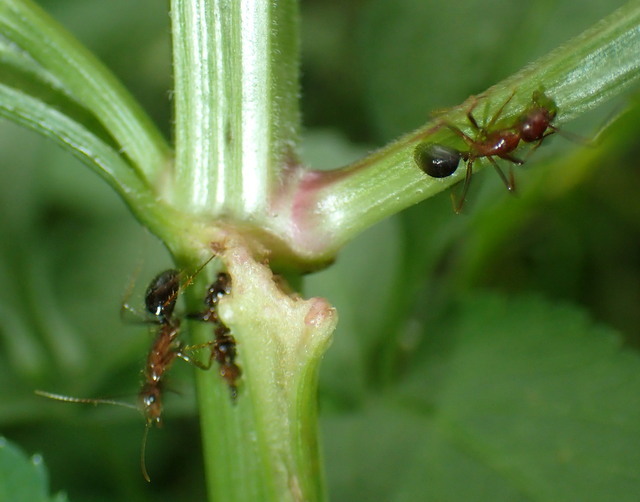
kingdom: Animalia
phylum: Arthropoda
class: Insecta
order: Hymenoptera
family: Formicidae
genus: Camponotus
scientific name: Camponotus floridanus
